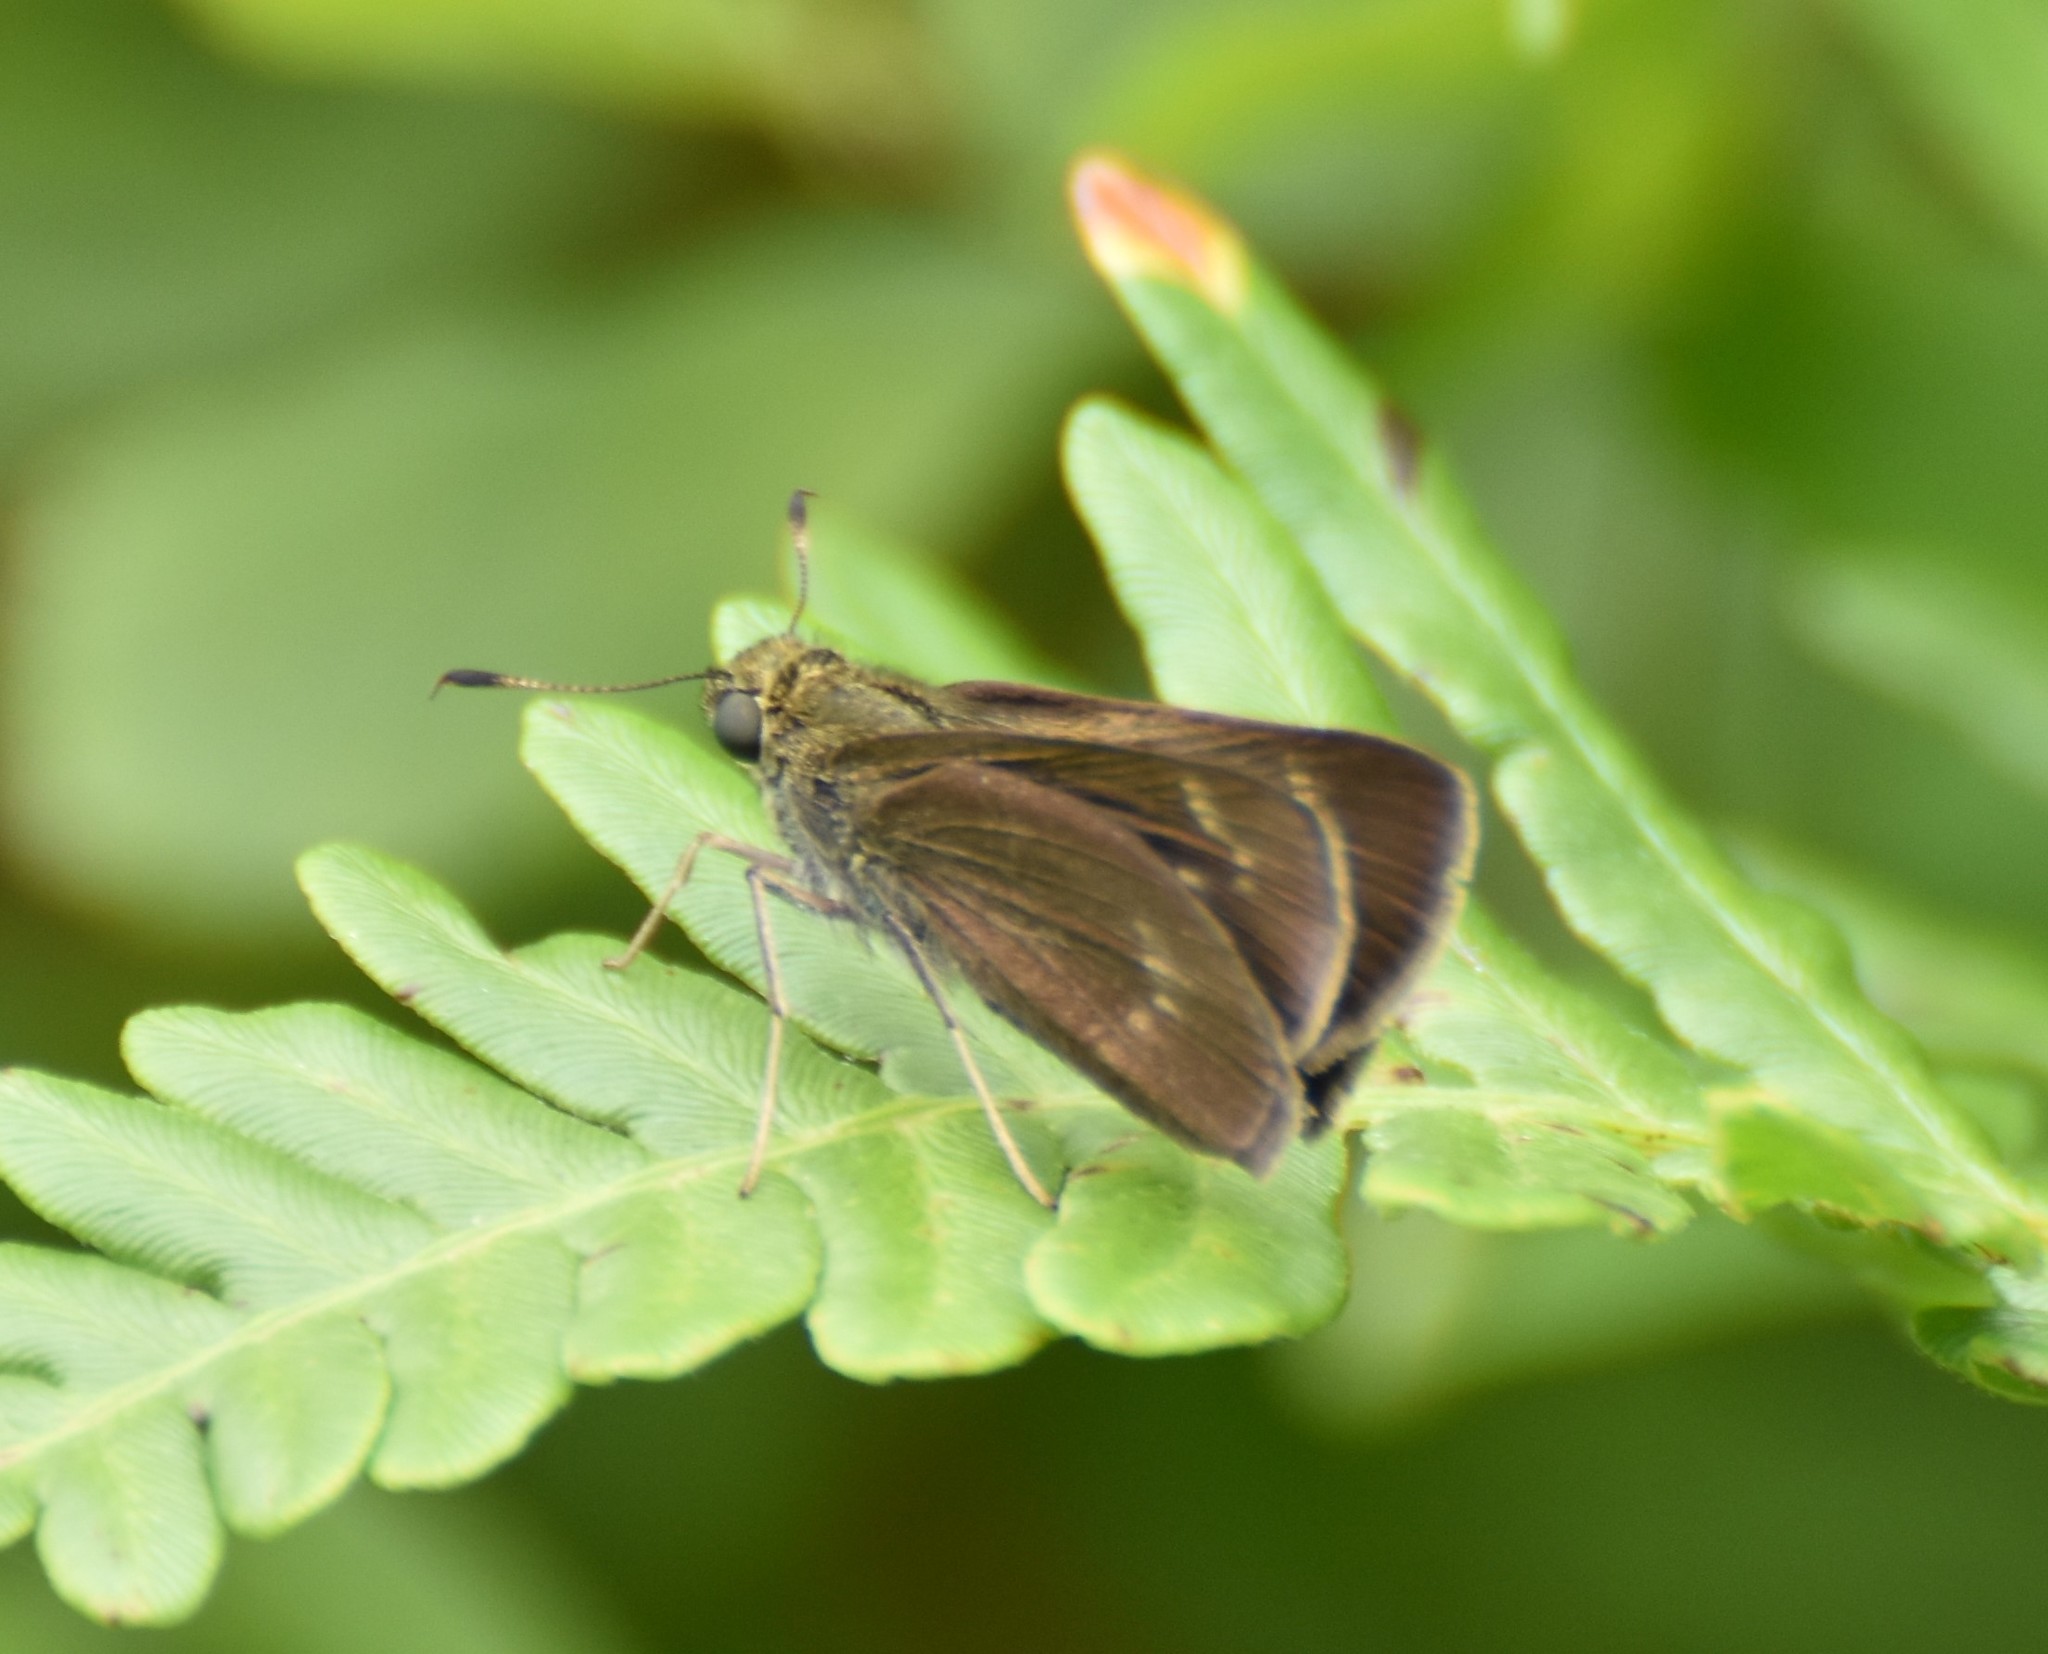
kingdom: Animalia
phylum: Arthropoda
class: Insecta
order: Lepidoptera
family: Hesperiidae
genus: Vernia
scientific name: Vernia verna
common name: Little glassywing
